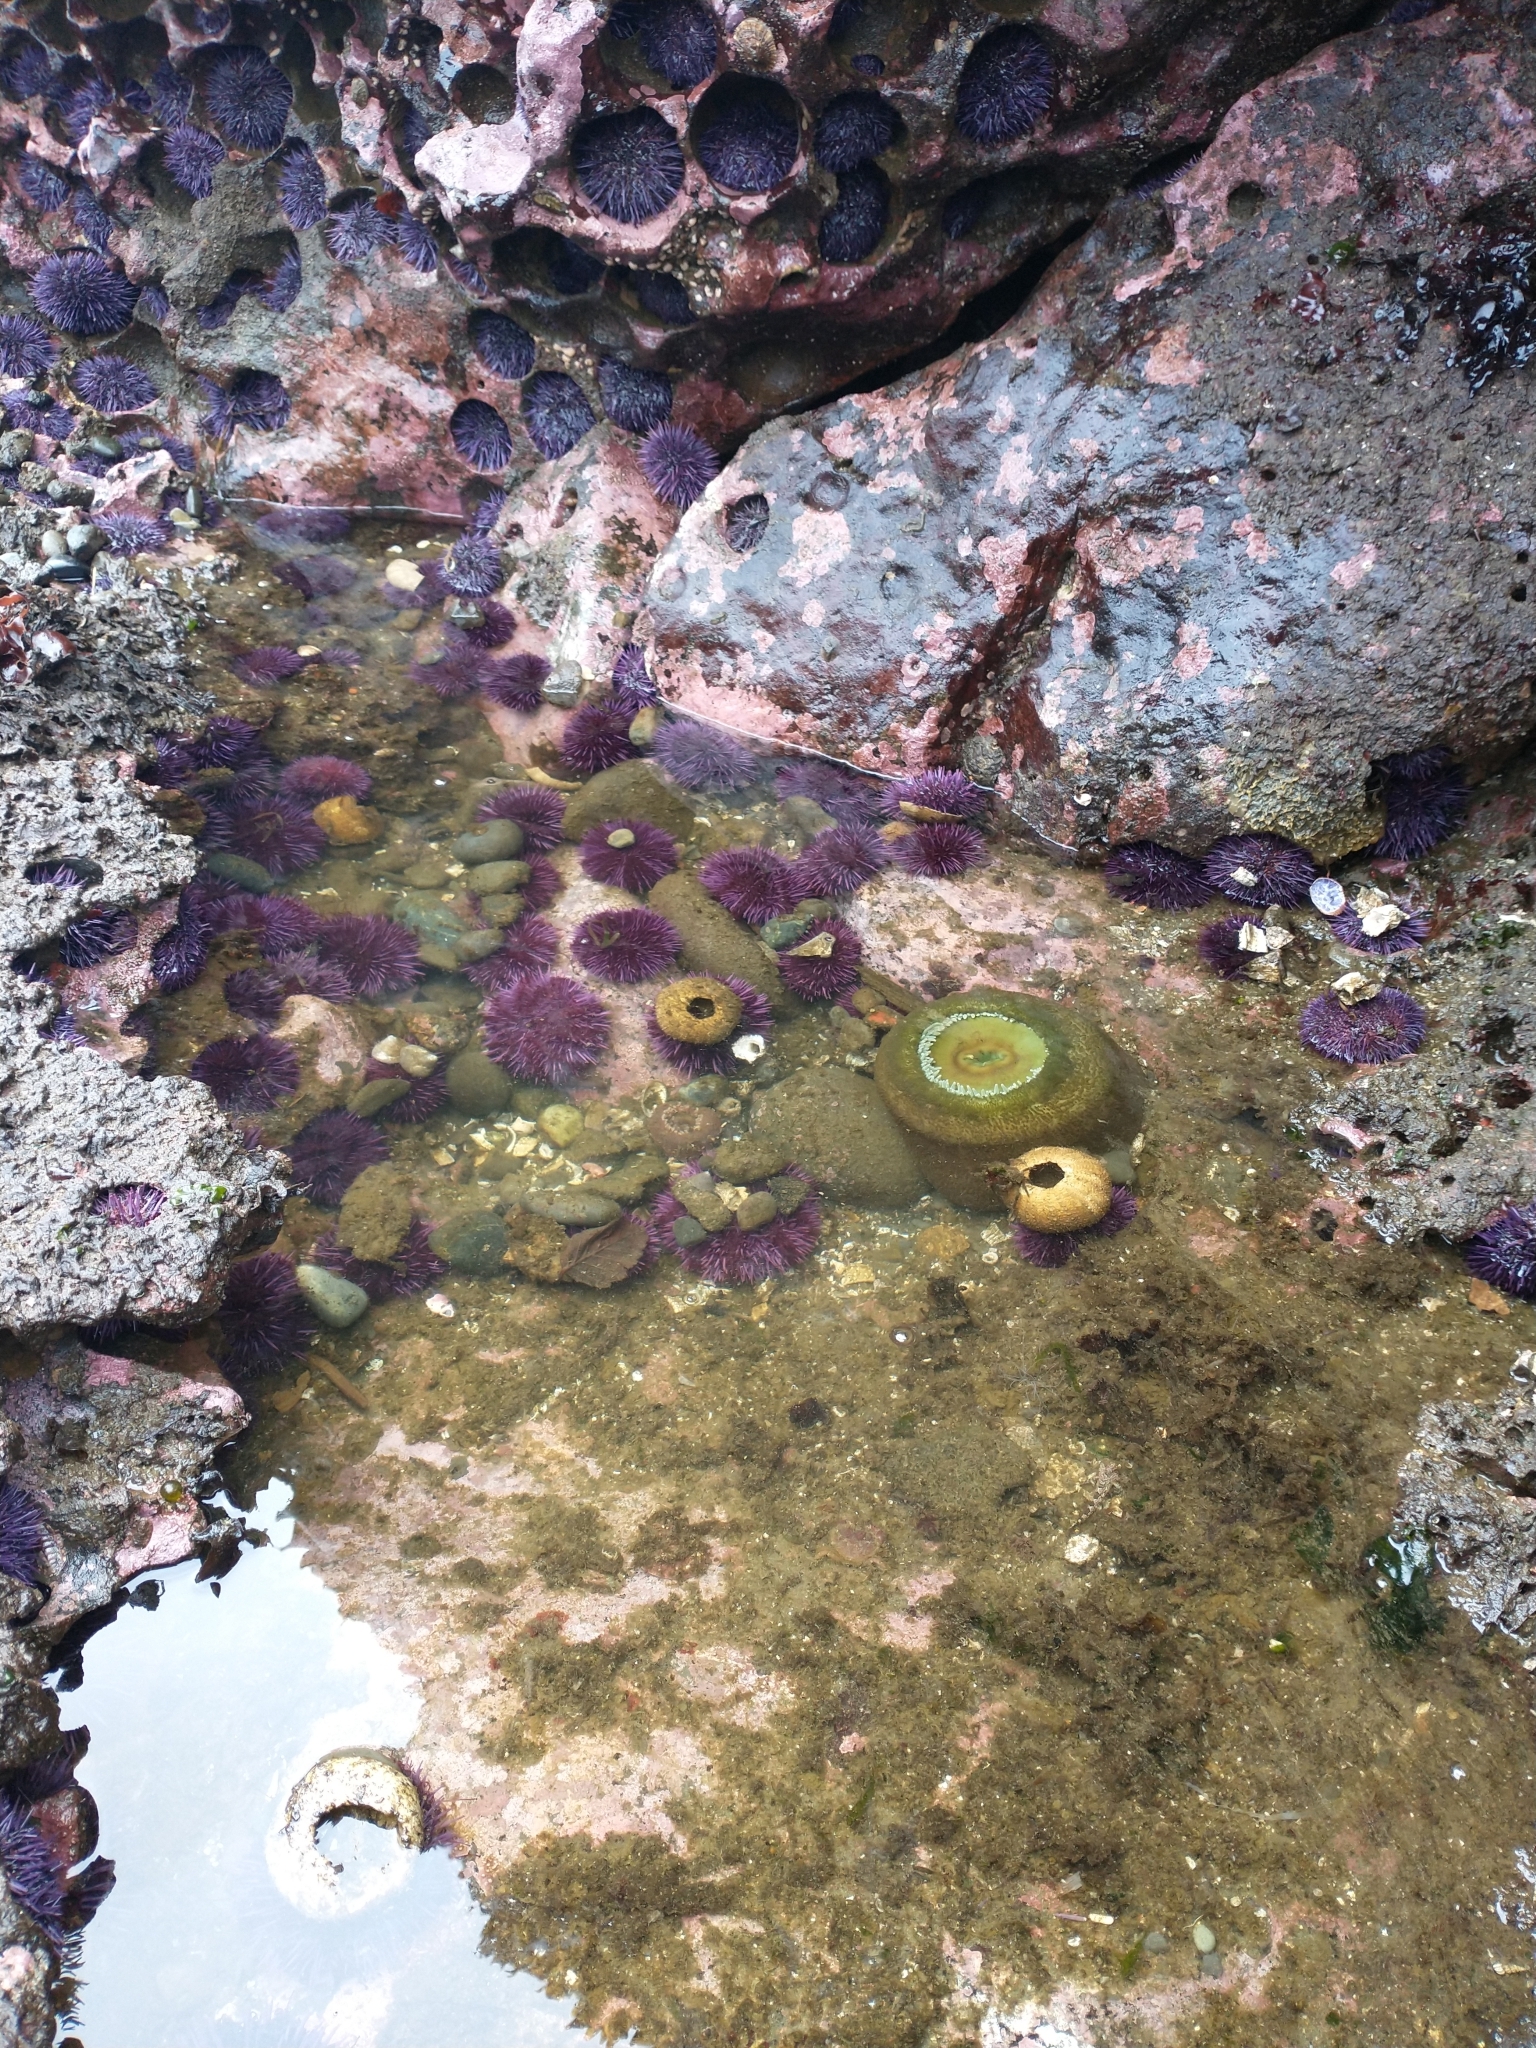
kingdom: Animalia
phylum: Cnidaria
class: Anthozoa
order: Actiniaria
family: Actiniidae
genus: Anthopleura
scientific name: Anthopleura xanthogrammica
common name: Giant green anemone
